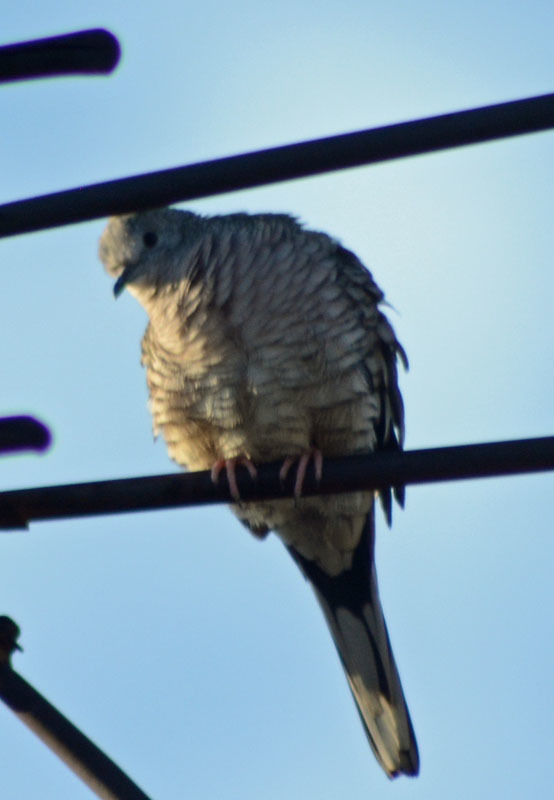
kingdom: Animalia
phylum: Chordata
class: Aves
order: Columbiformes
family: Columbidae
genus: Columbina
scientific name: Columbina inca
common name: Inca dove
